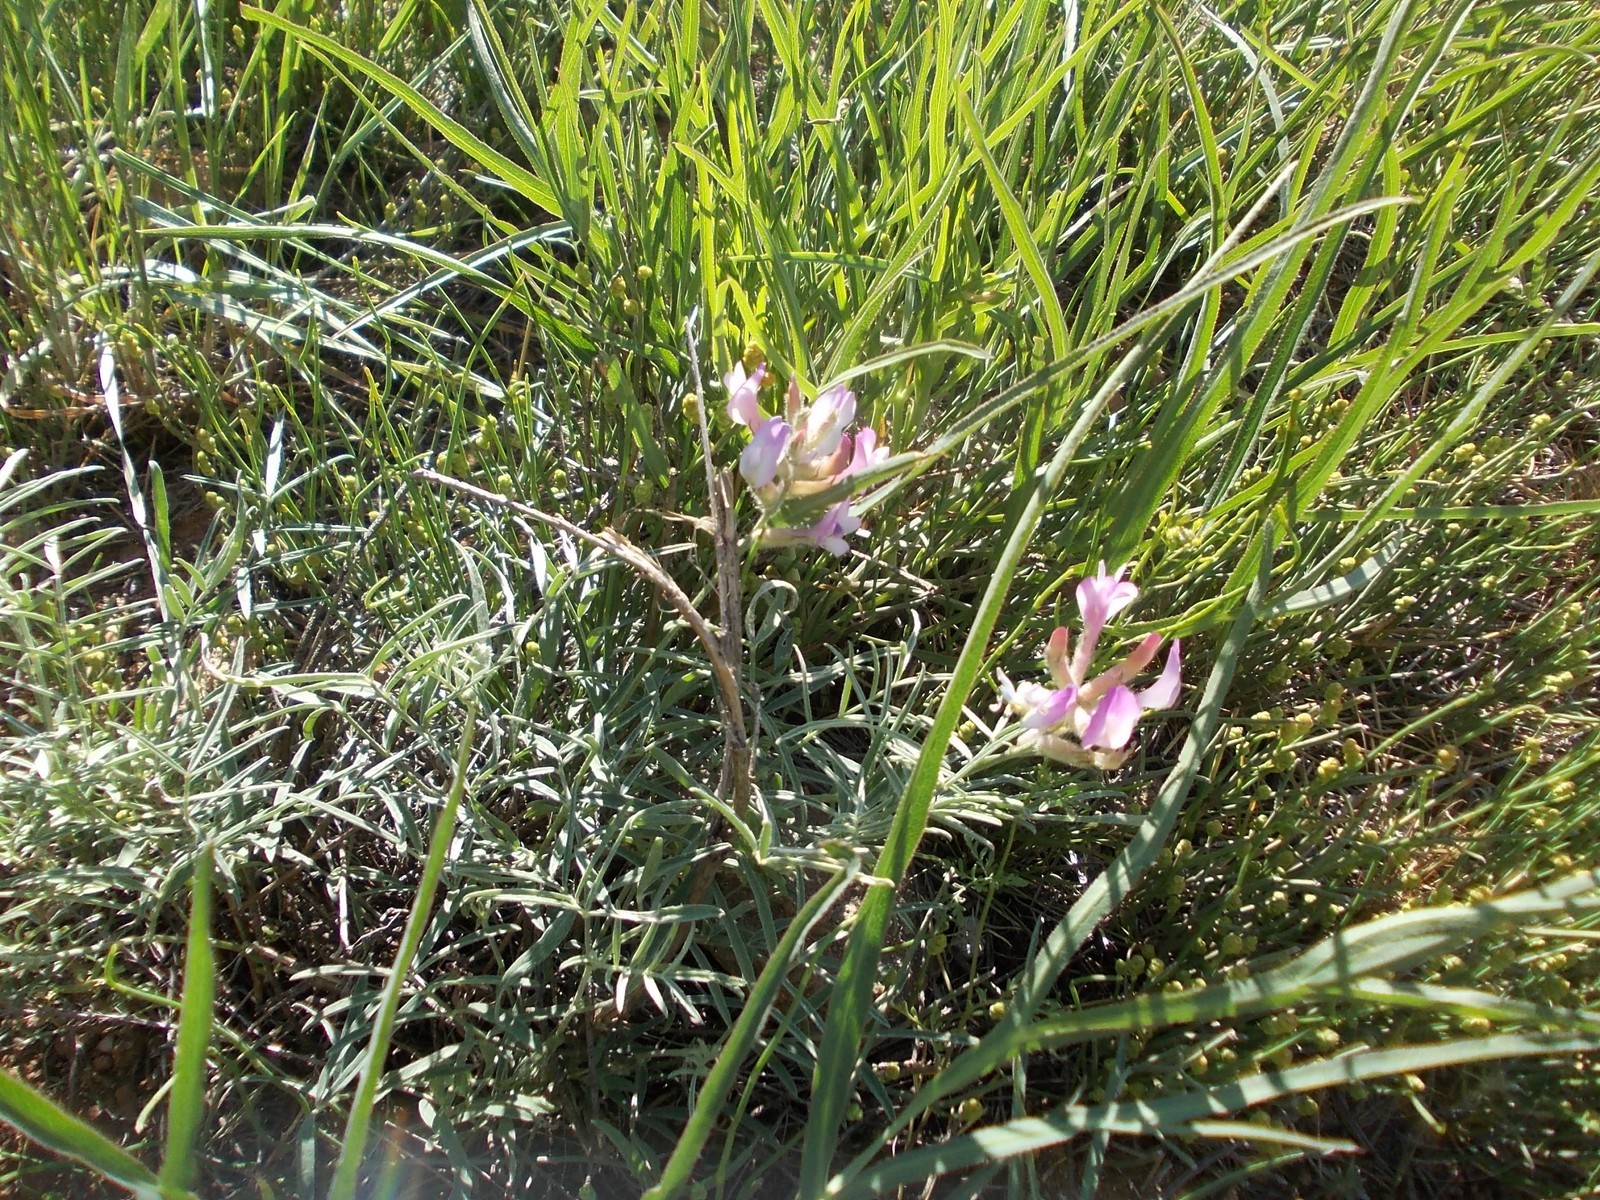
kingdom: Plantae
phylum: Tracheophyta
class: Magnoliopsida
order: Fabales
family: Fabaceae
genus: Astragalus
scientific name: Astragalus brachylobus
